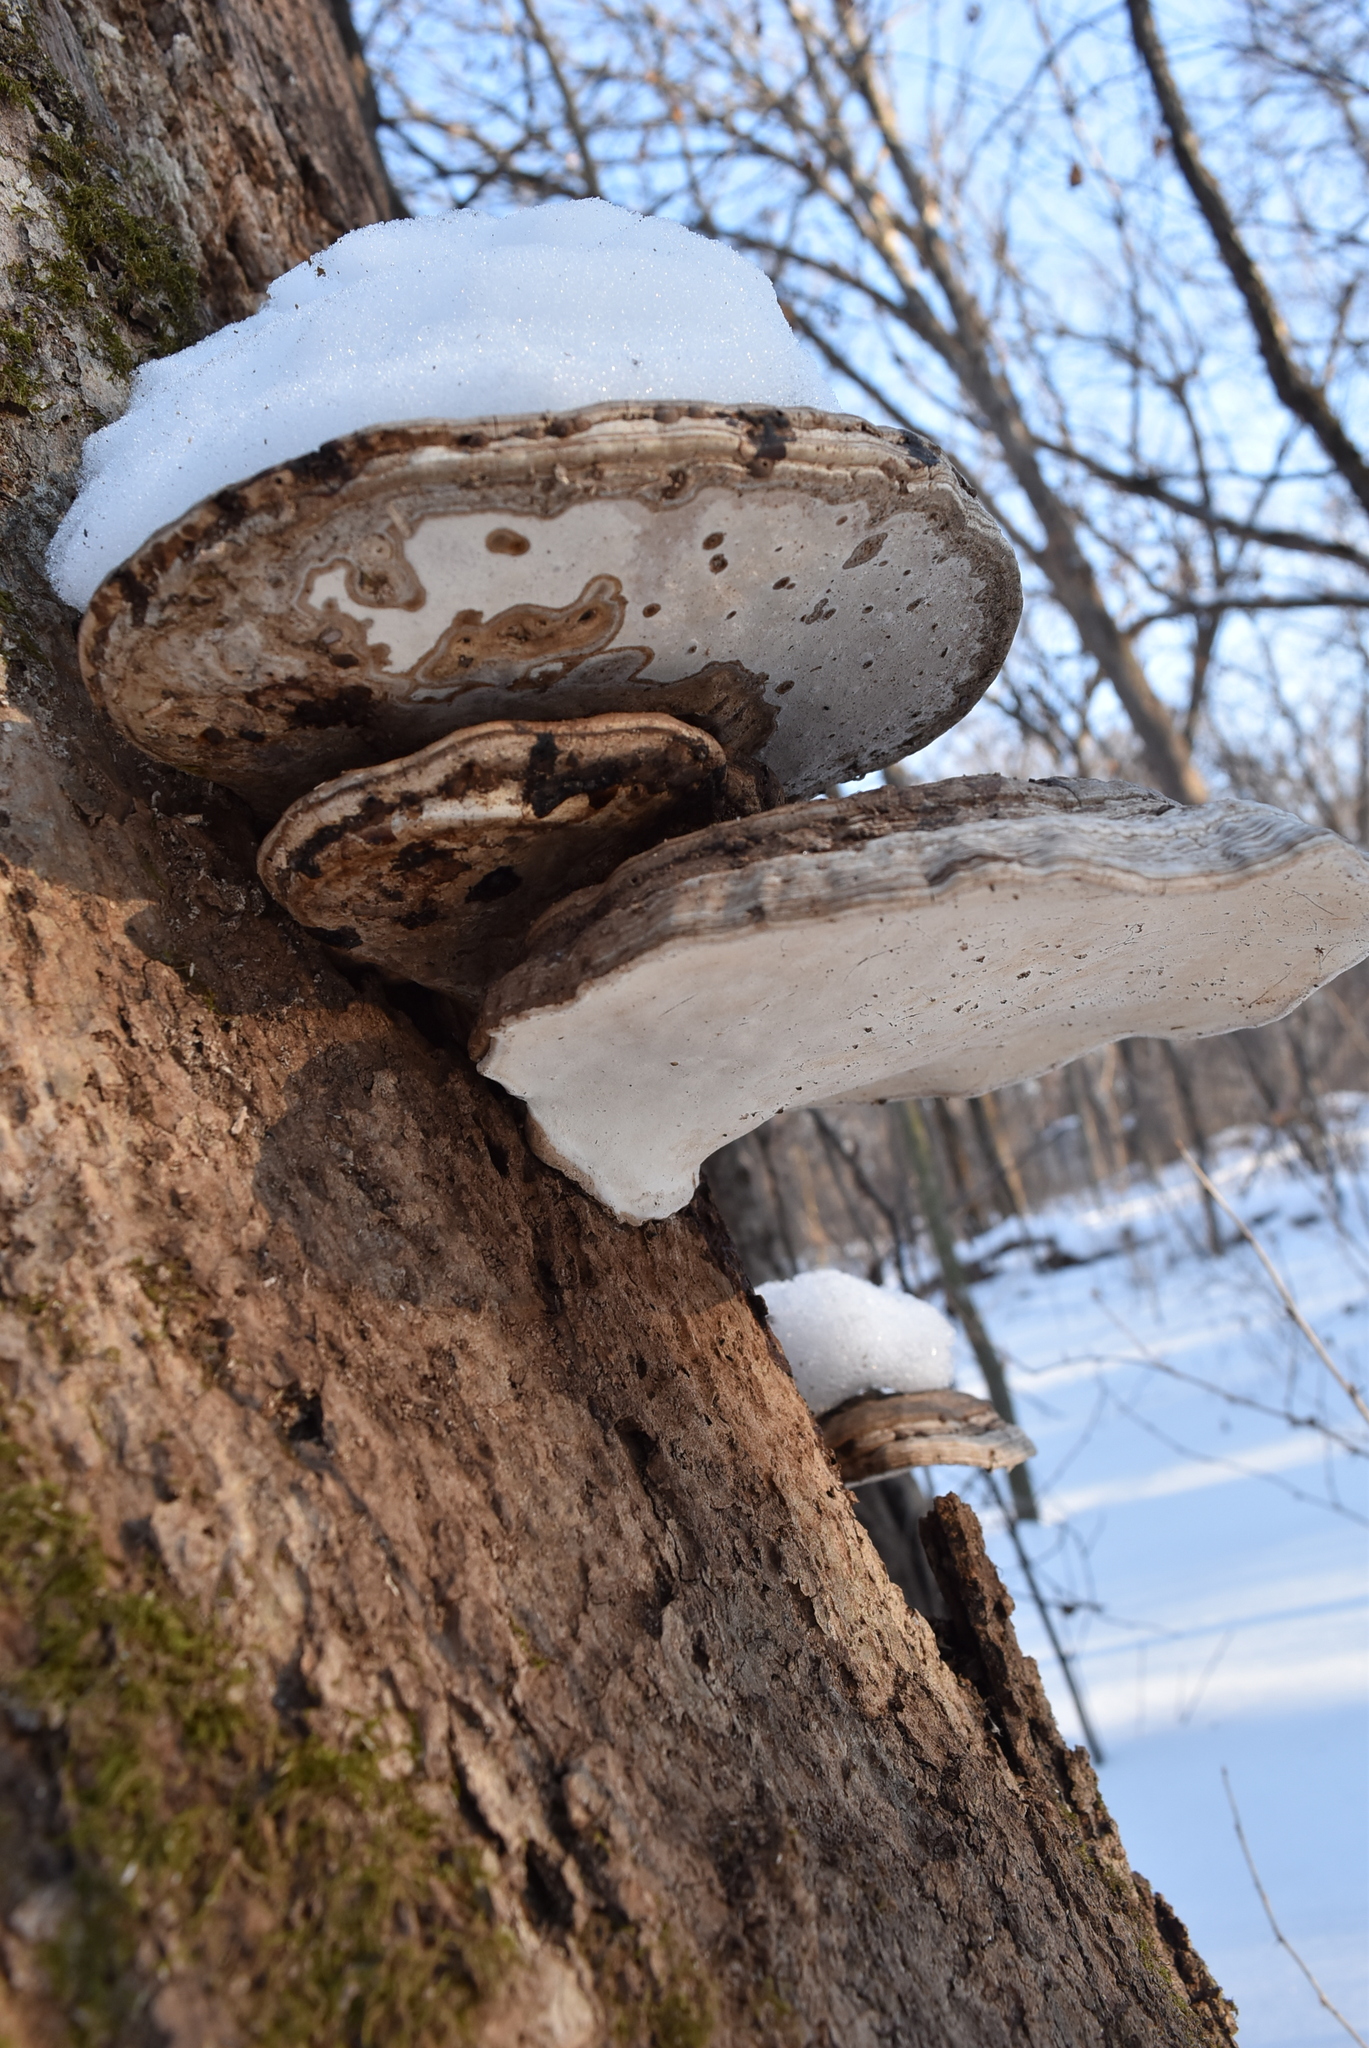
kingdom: Fungi
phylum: Basidiomycota
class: Agaricomycetes
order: Polyporales
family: Polyporaceae
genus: Ganoderma
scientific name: Ganoderma
